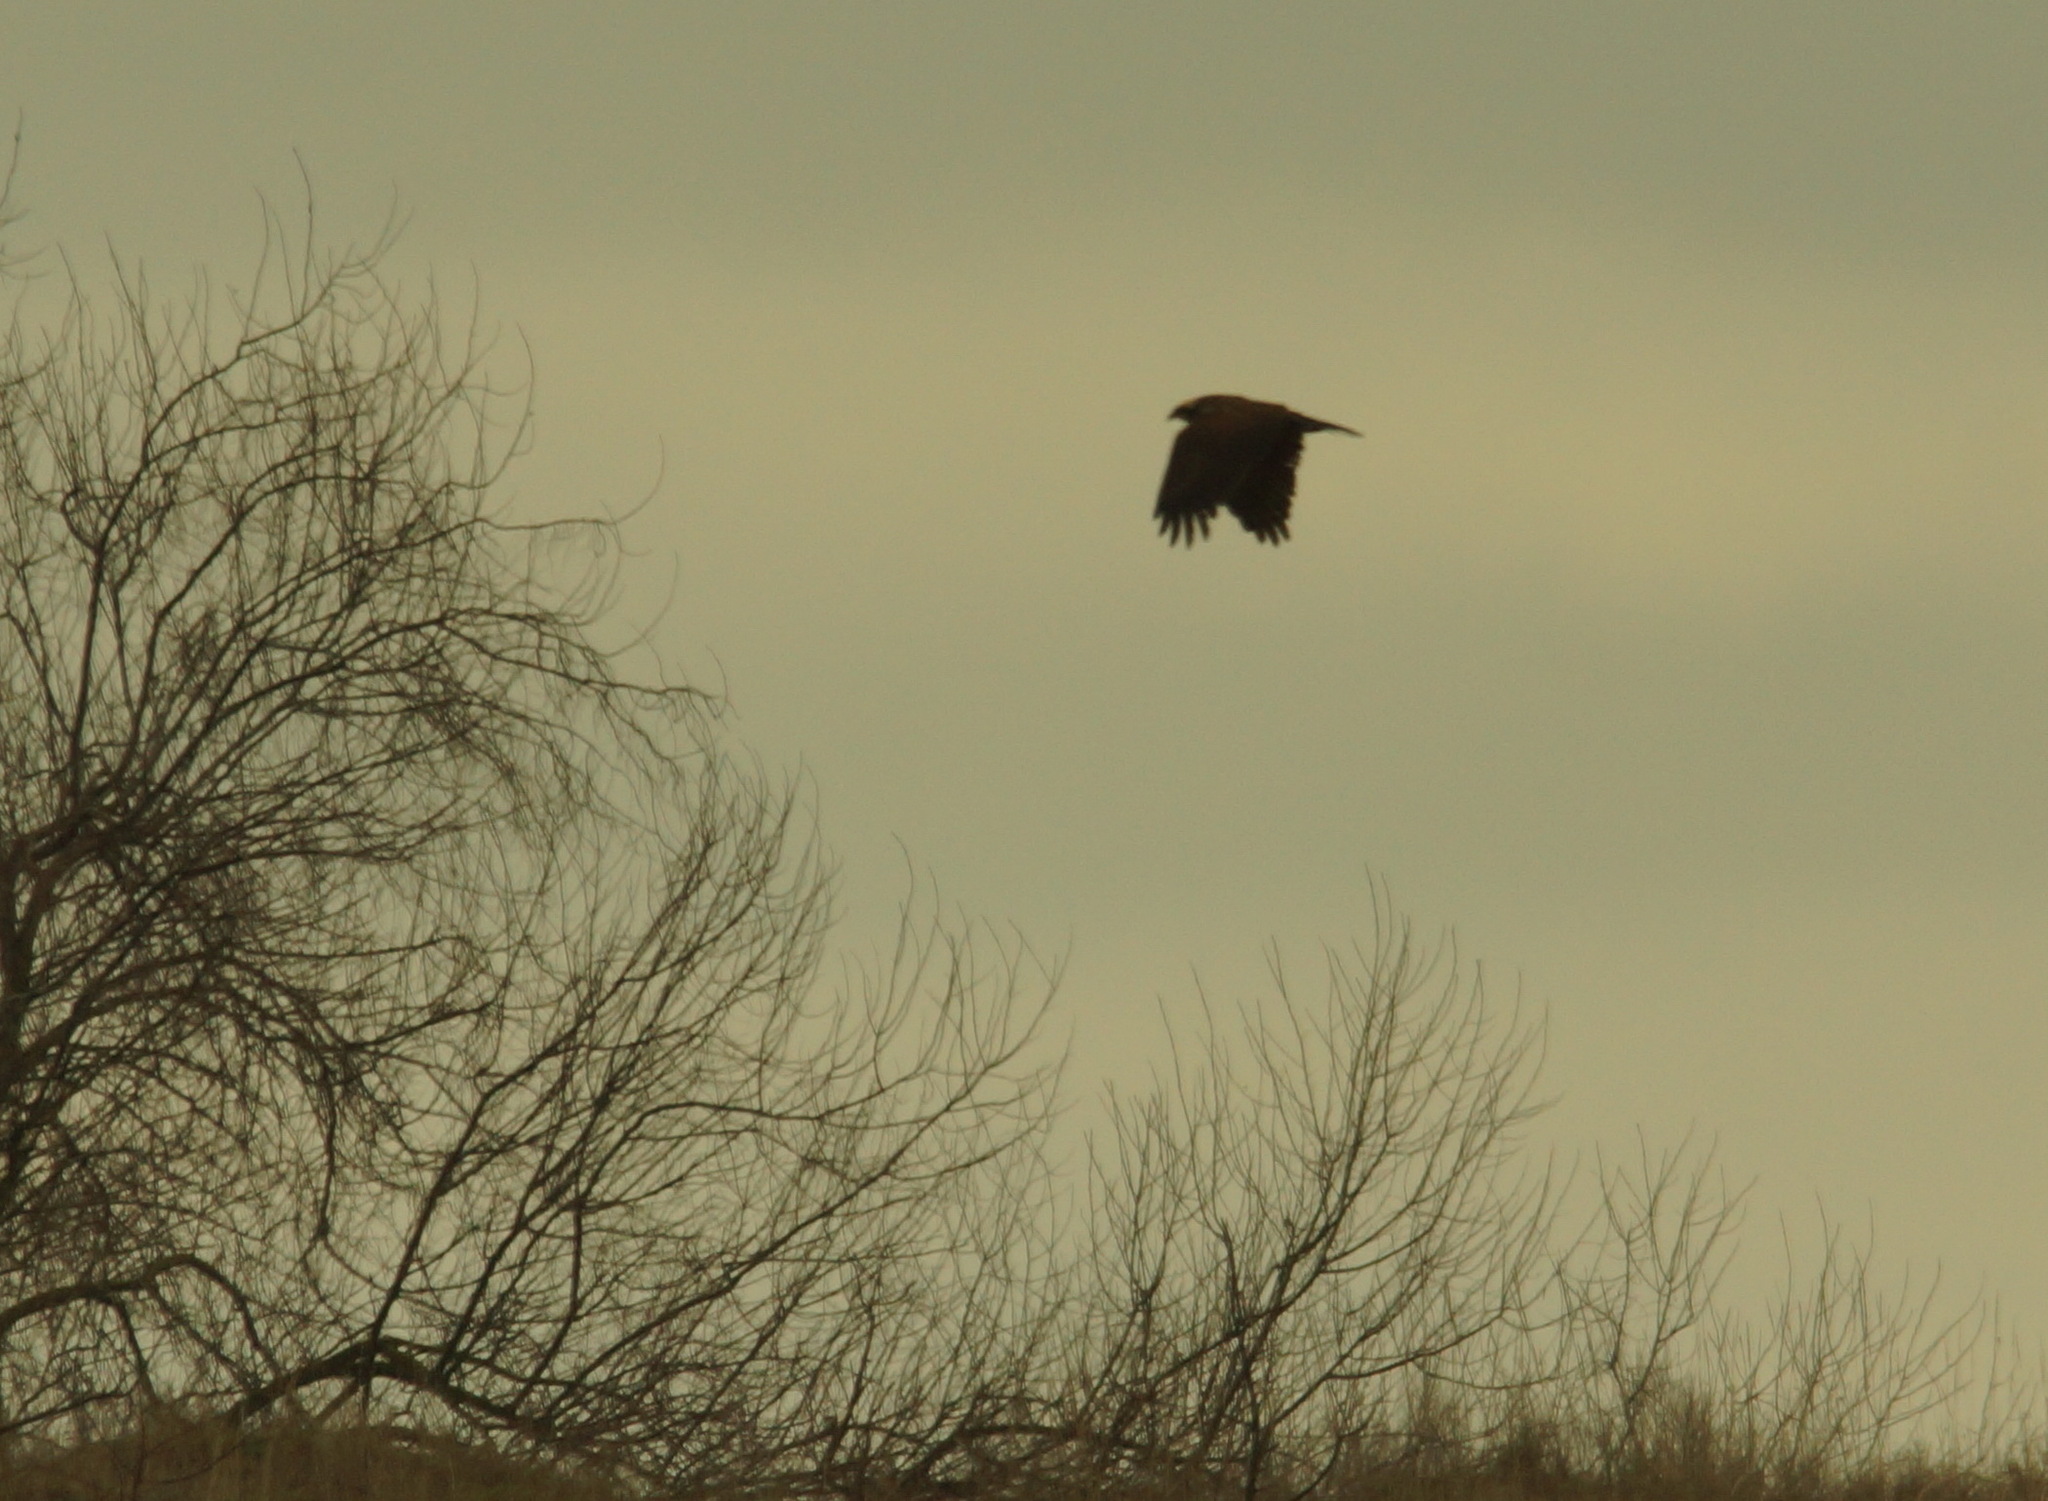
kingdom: Animalia
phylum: Chordata
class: Aves
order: Accipitriformes
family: Accipitridae
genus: Circus
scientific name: Circus aeruginosus
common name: Western marsh harrier
